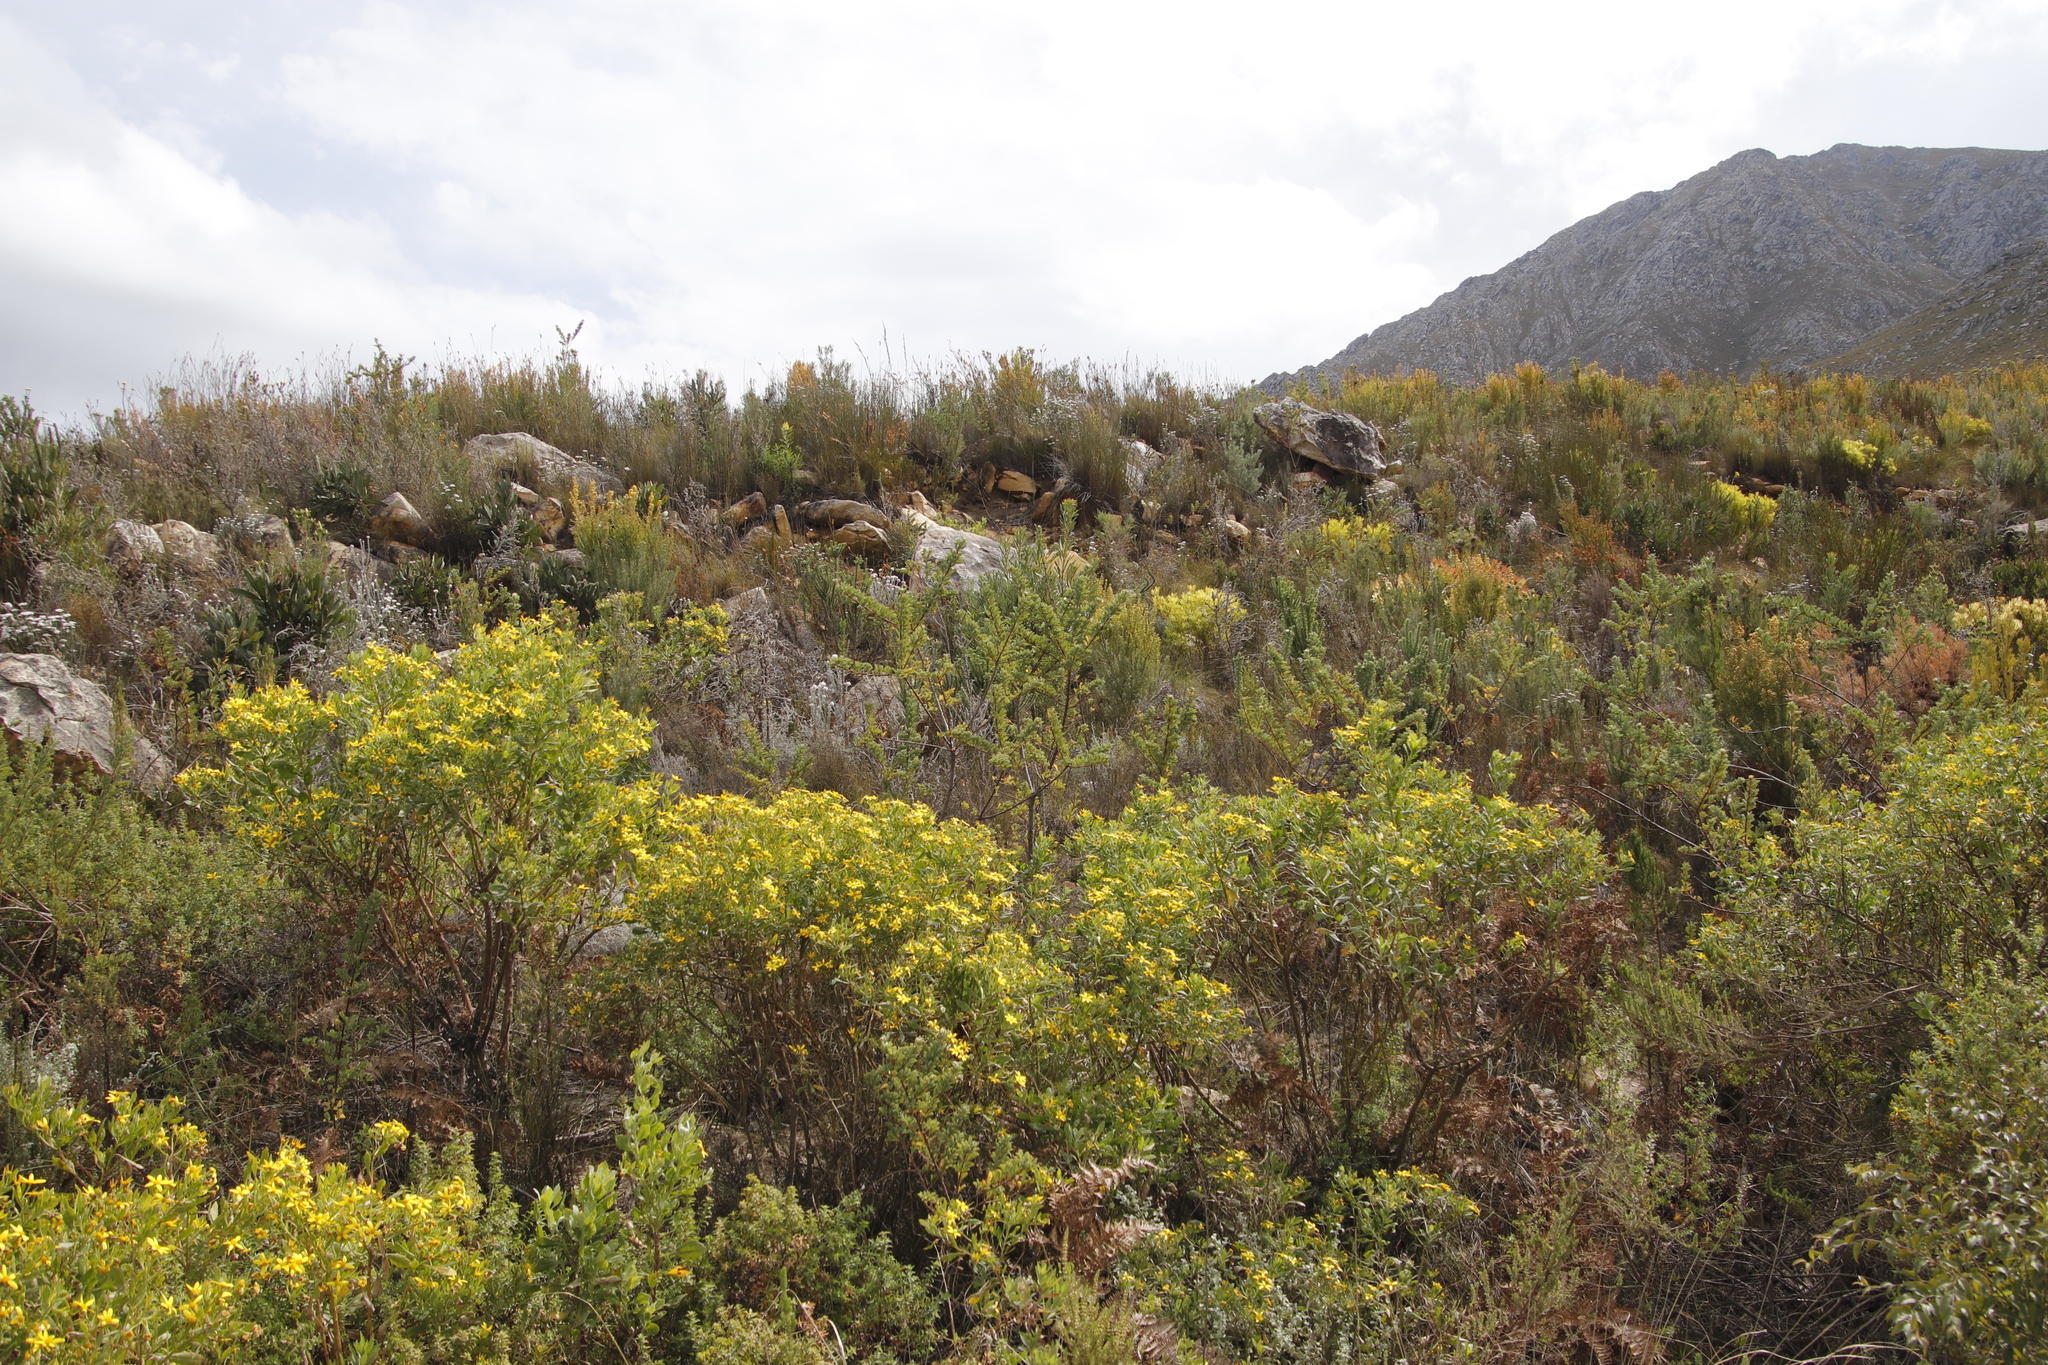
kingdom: Plantae
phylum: Tracheophyta
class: Magnoliopsida
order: Asterales
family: Asteraceae
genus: Osteospermum
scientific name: Osteospermum moniliferum
